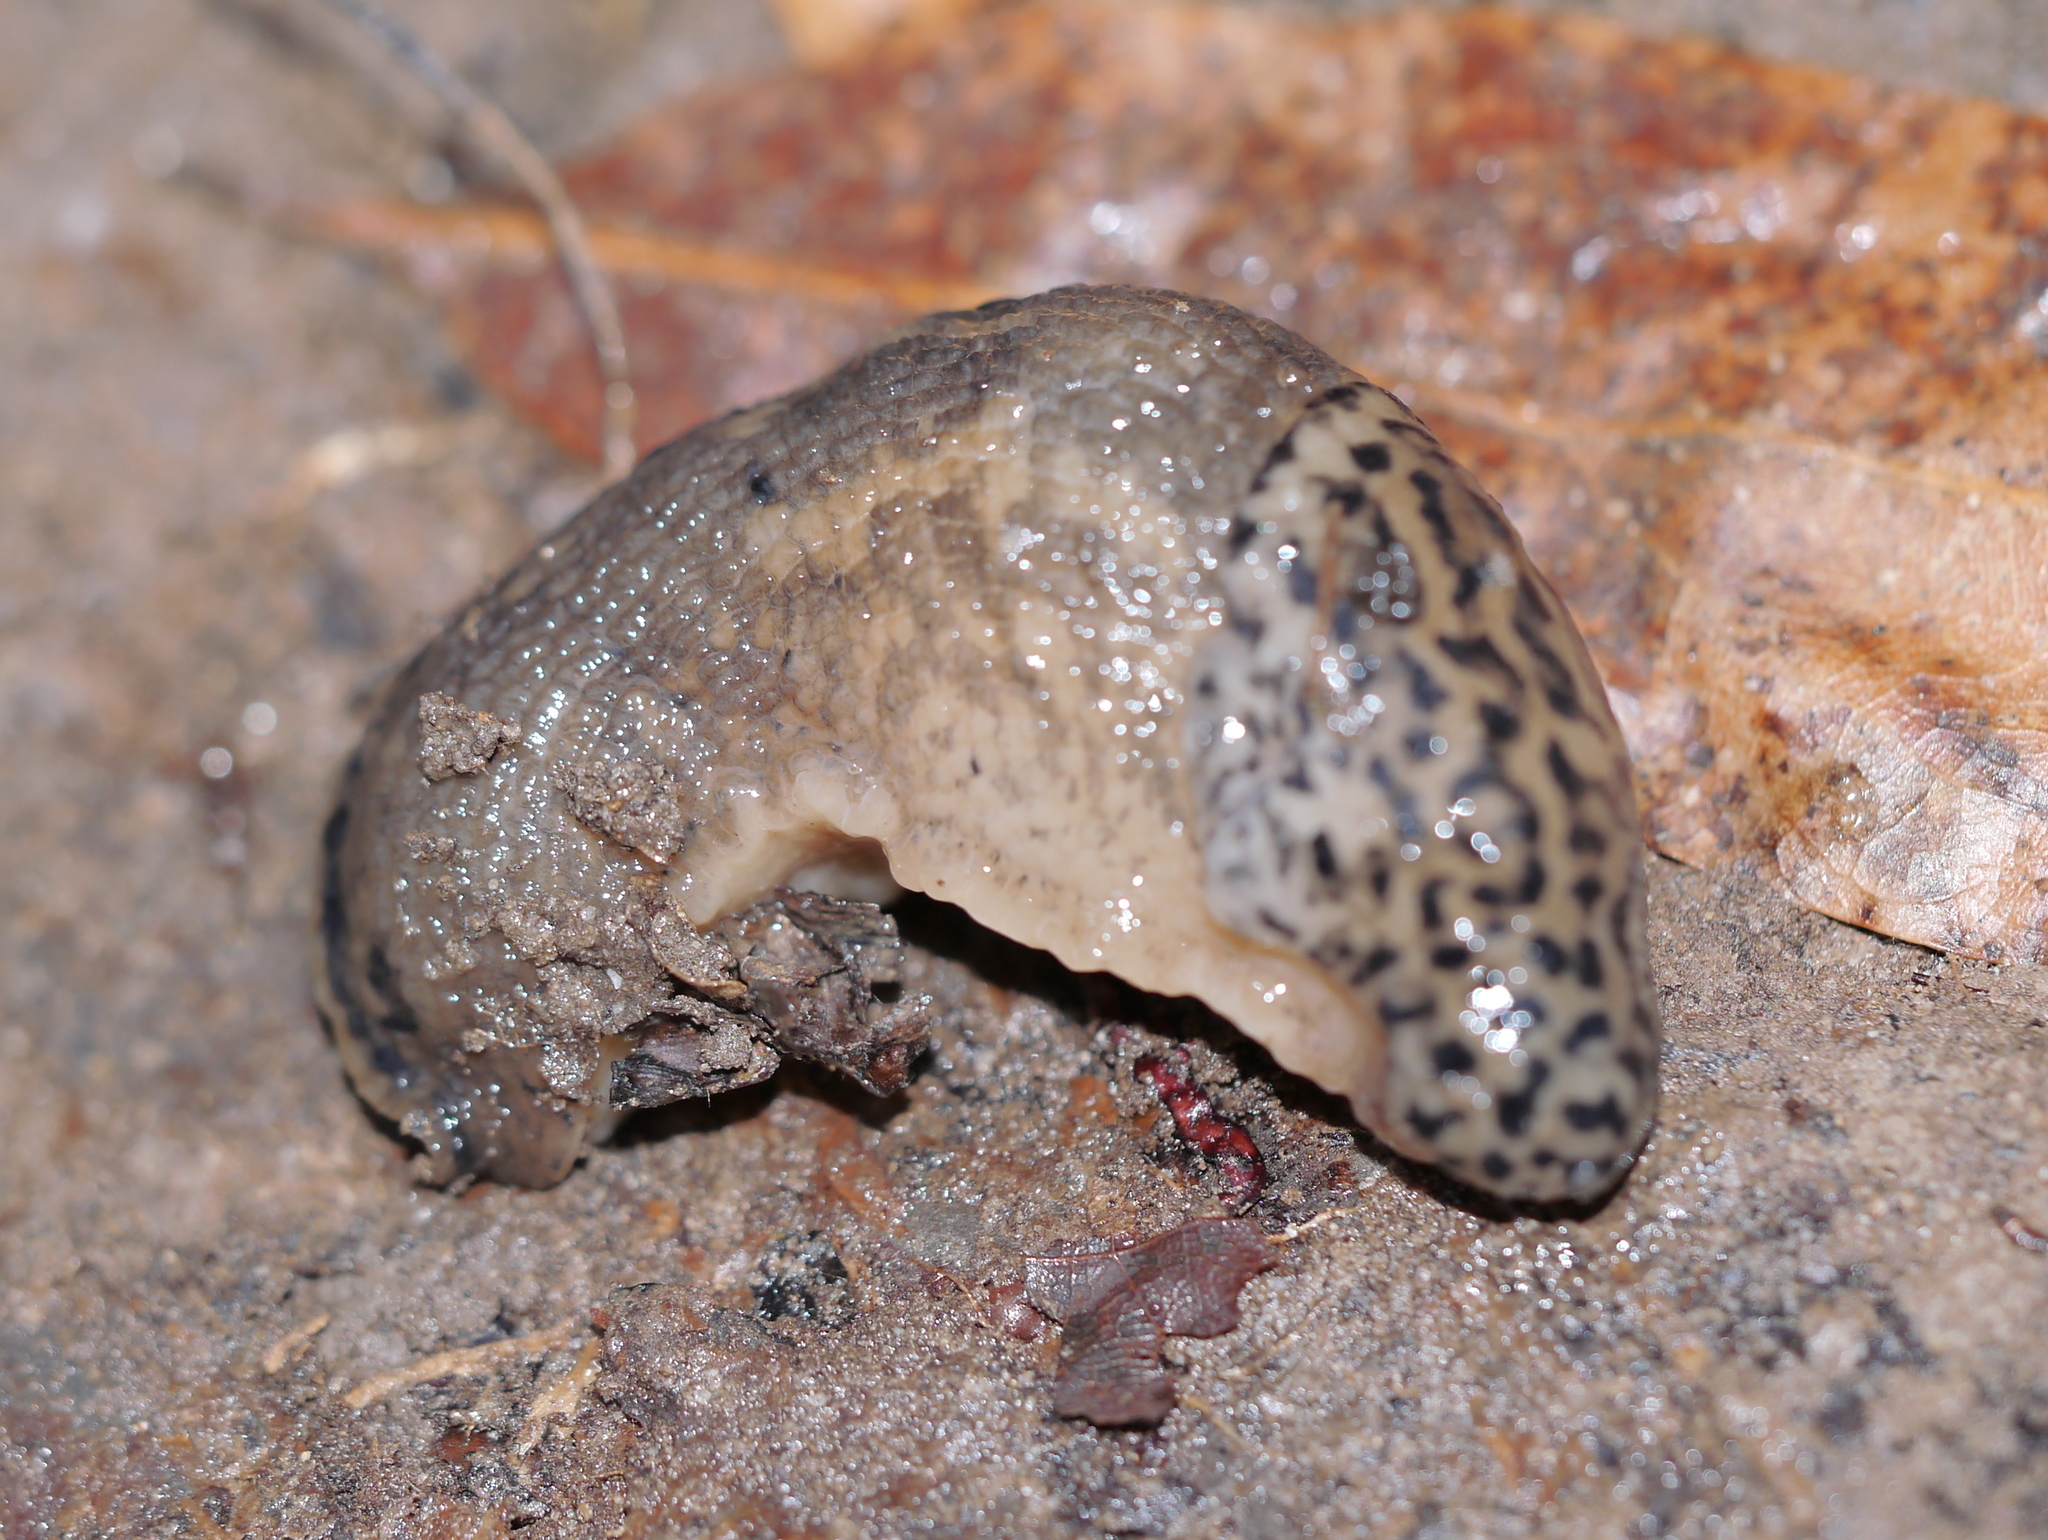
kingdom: Animalia
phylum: Mollusca
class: Gastropoda
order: Stylommatophora
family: Limacidae
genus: Limax
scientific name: Limax maximus
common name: Great grey slug
